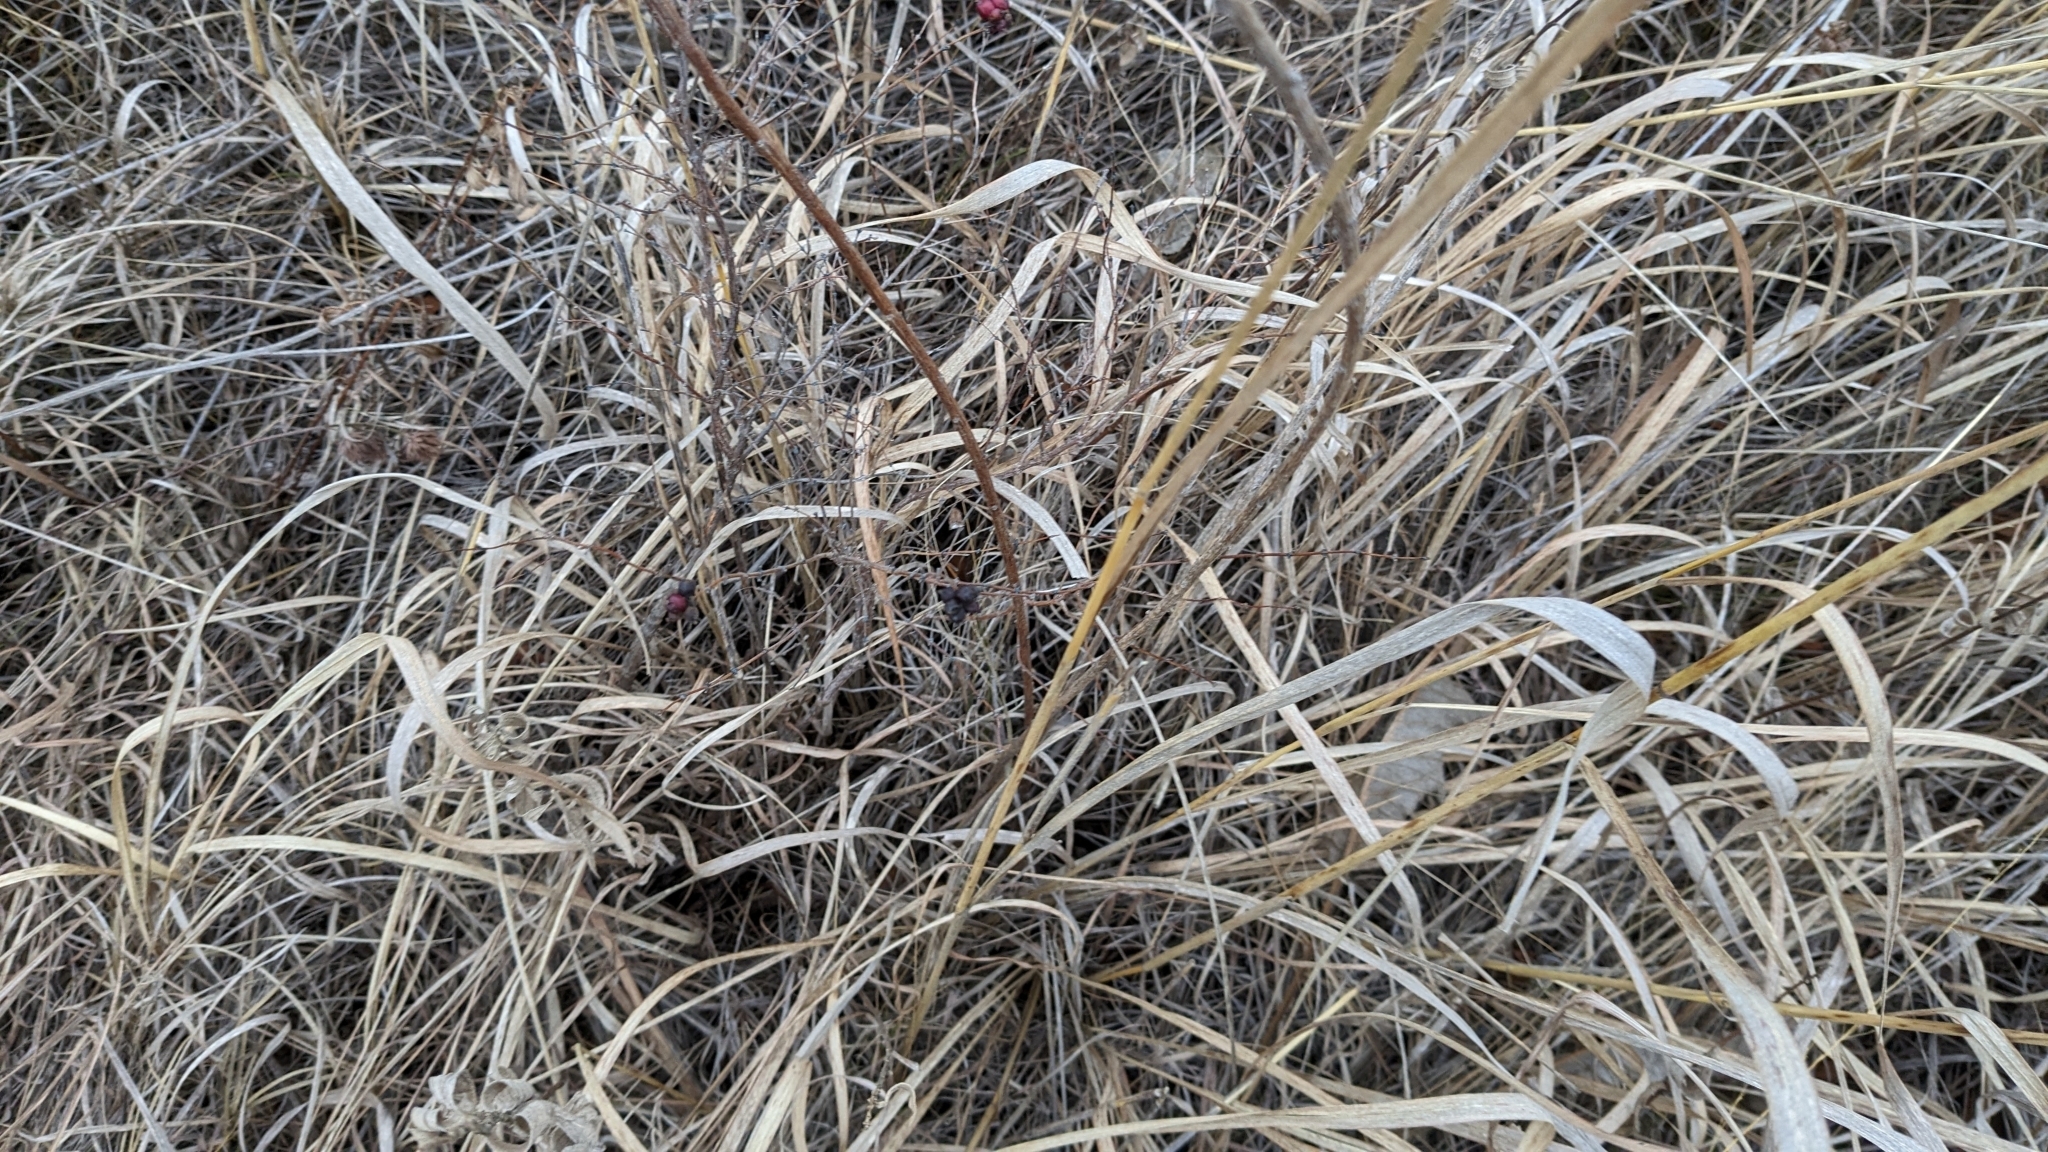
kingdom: Plantae
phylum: Tracheophyta
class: Magnoliopsida
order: Fabales
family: Fabaceae
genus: Lespedeza
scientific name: Lespedeza capitata
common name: Dusty clover
